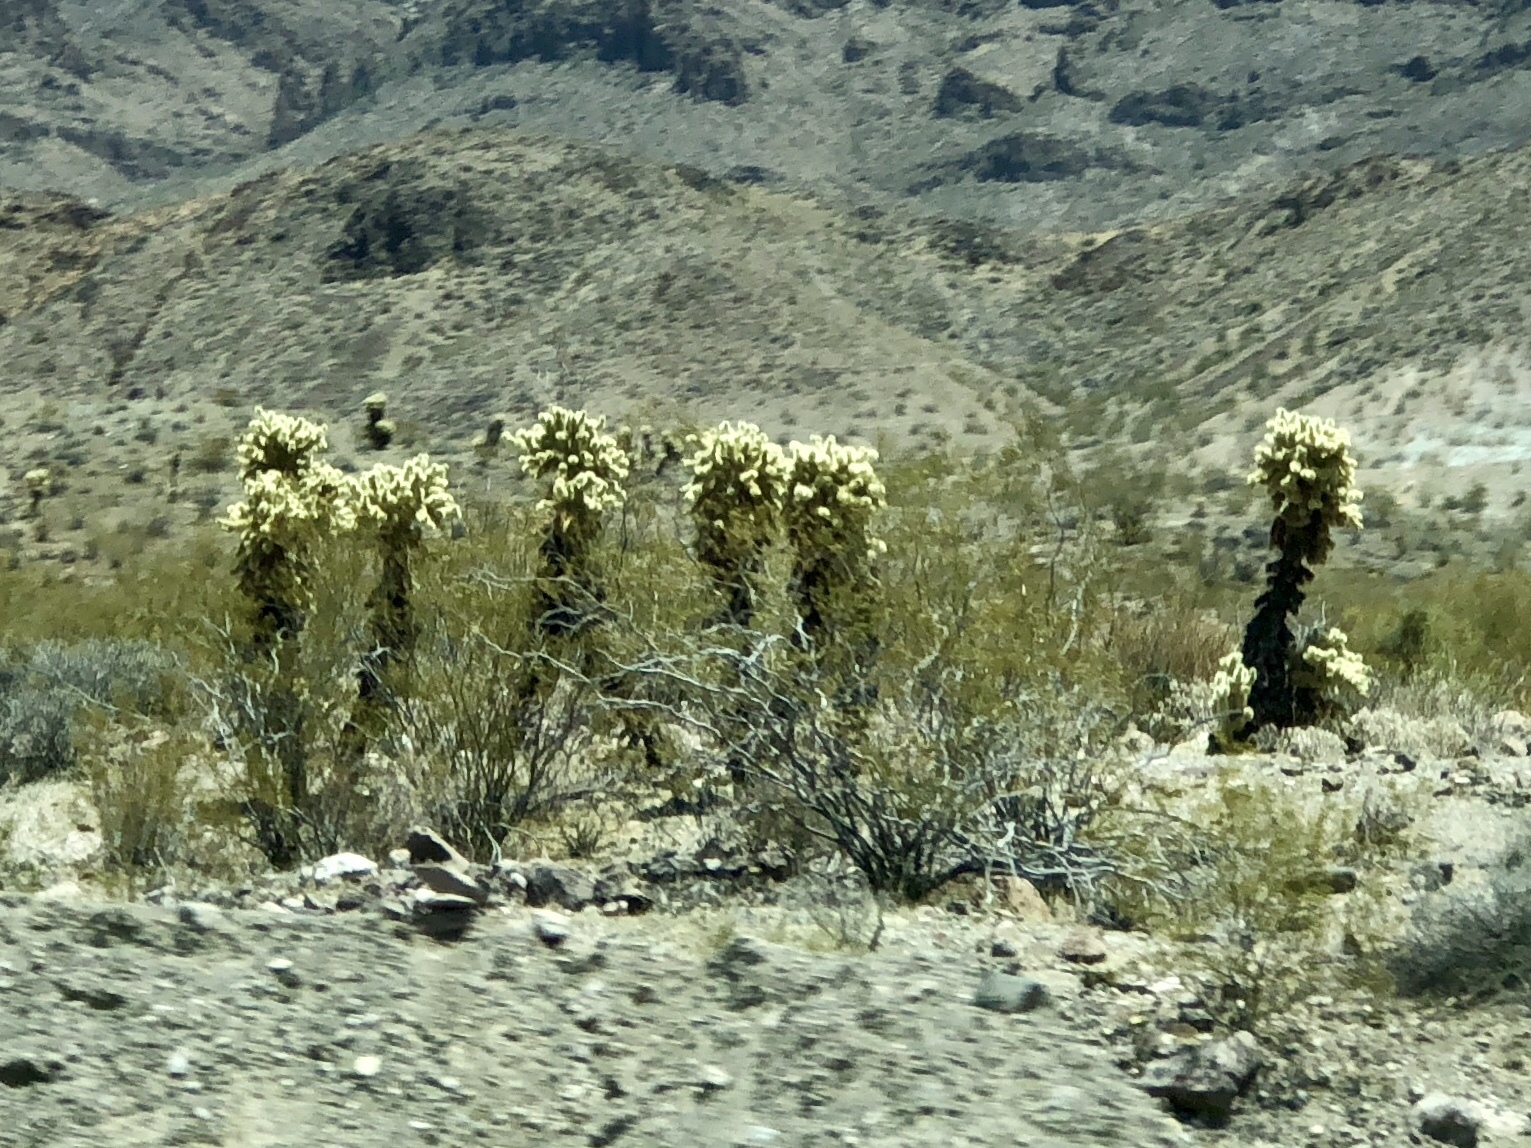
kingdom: Plantae
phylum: Tracheophyta
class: Magnoliopsida
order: Caryophyllales
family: Cactaceae
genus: Cylindropuntia
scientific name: Cylindropuntia fosbergii
